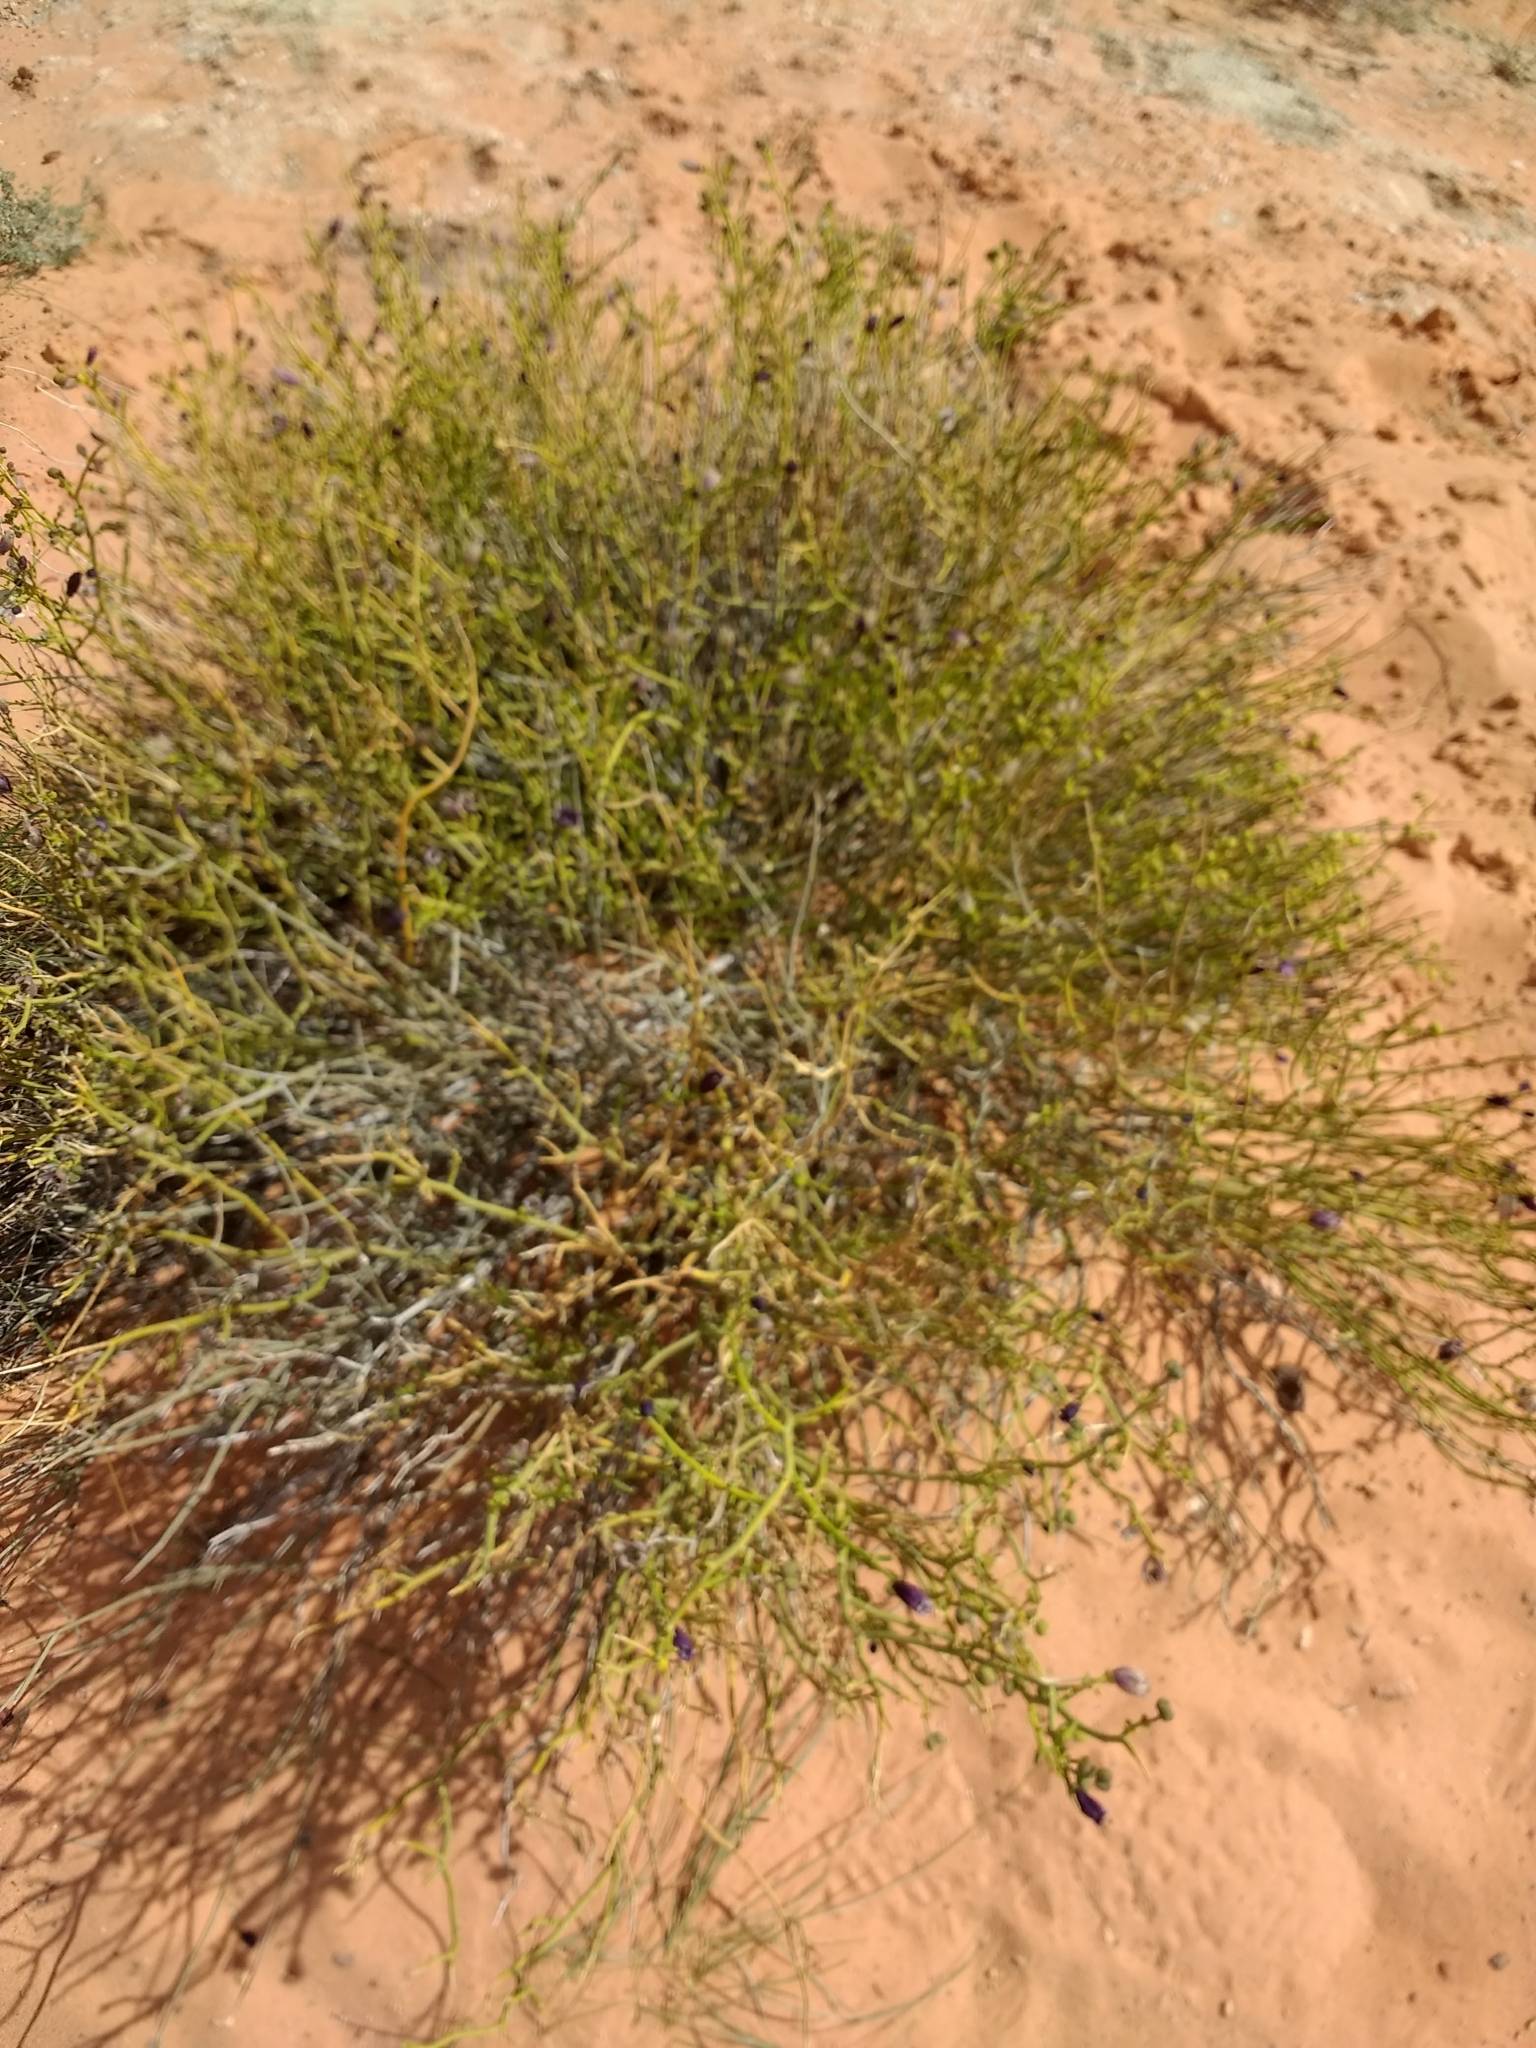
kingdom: Plantae
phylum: Tracheophyta
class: Magnoliopsida
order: Sapindales
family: Rutaceae
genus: Thamnosma
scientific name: Thamnosma montana
